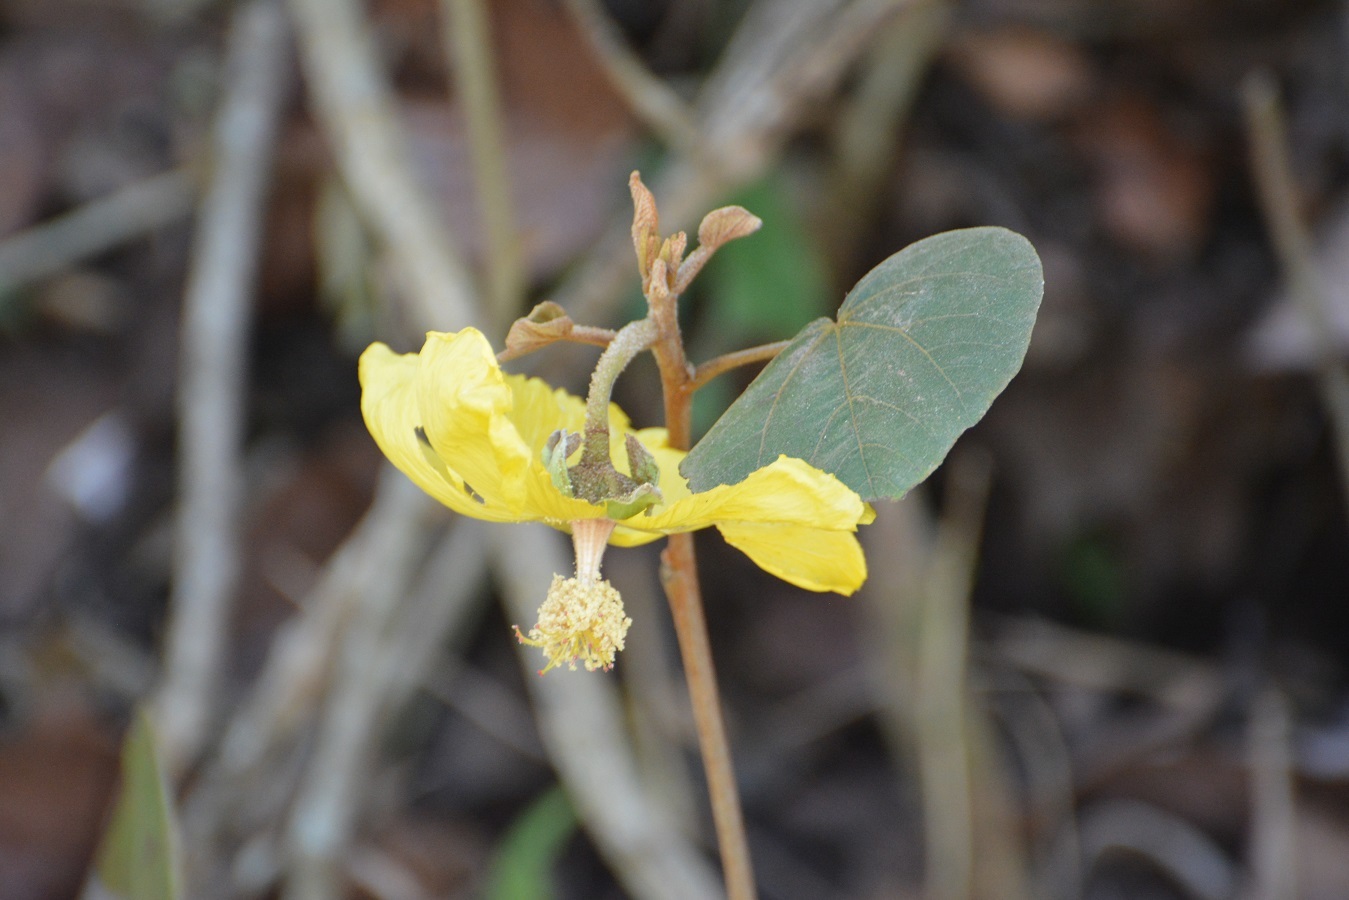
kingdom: Plantae
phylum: Tracheophyta
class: Magnoliopsida
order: Malvales
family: Malvaceae
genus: Bakeridesia
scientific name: Bakeridesia gloriosa
